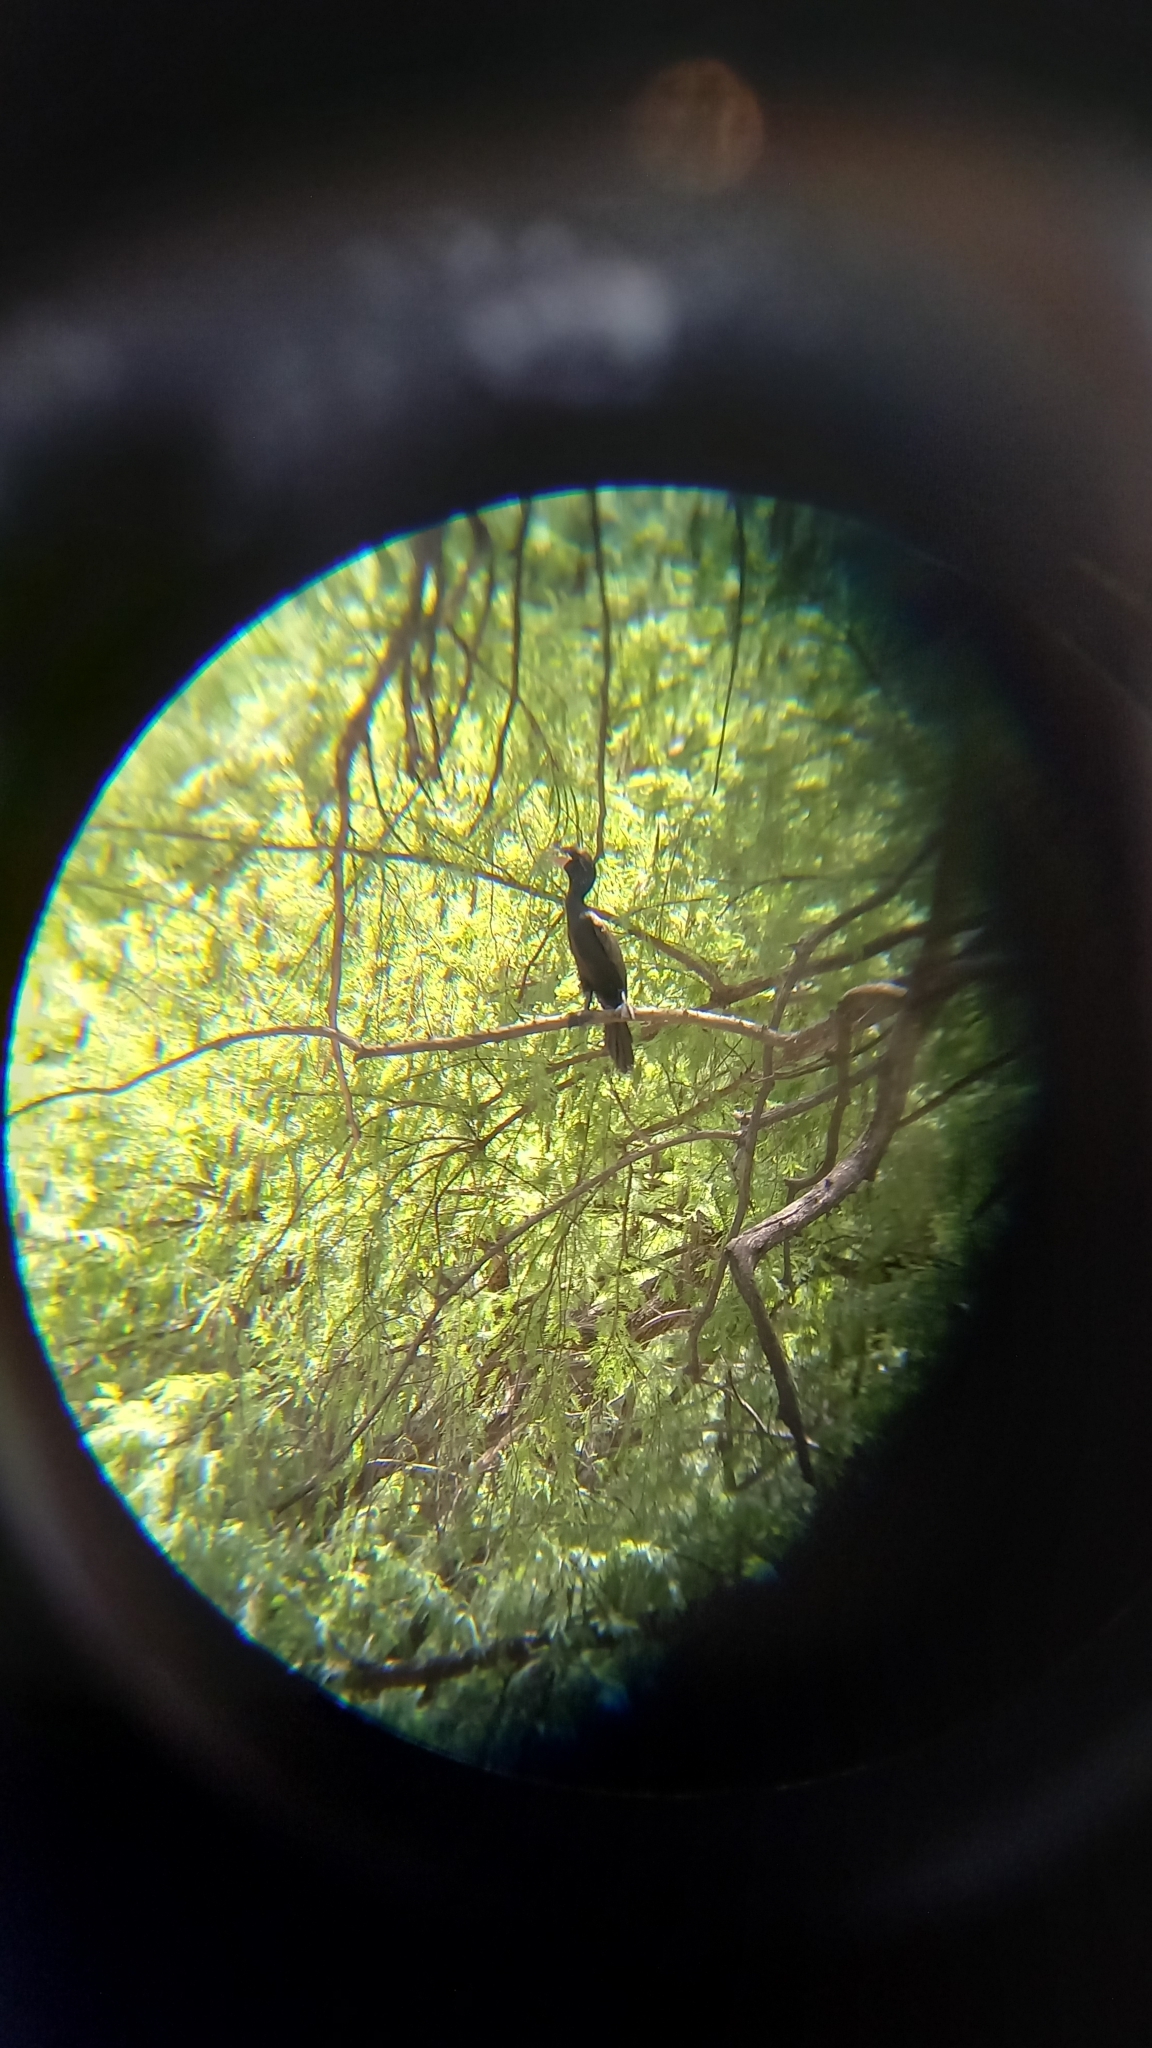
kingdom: Animalia
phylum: Chordata
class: Aves
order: Suliformes
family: Phalacrocoracidae
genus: Phalacrocorax
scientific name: Phalacrocorax brasilianus
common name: Neotropic cormorant
